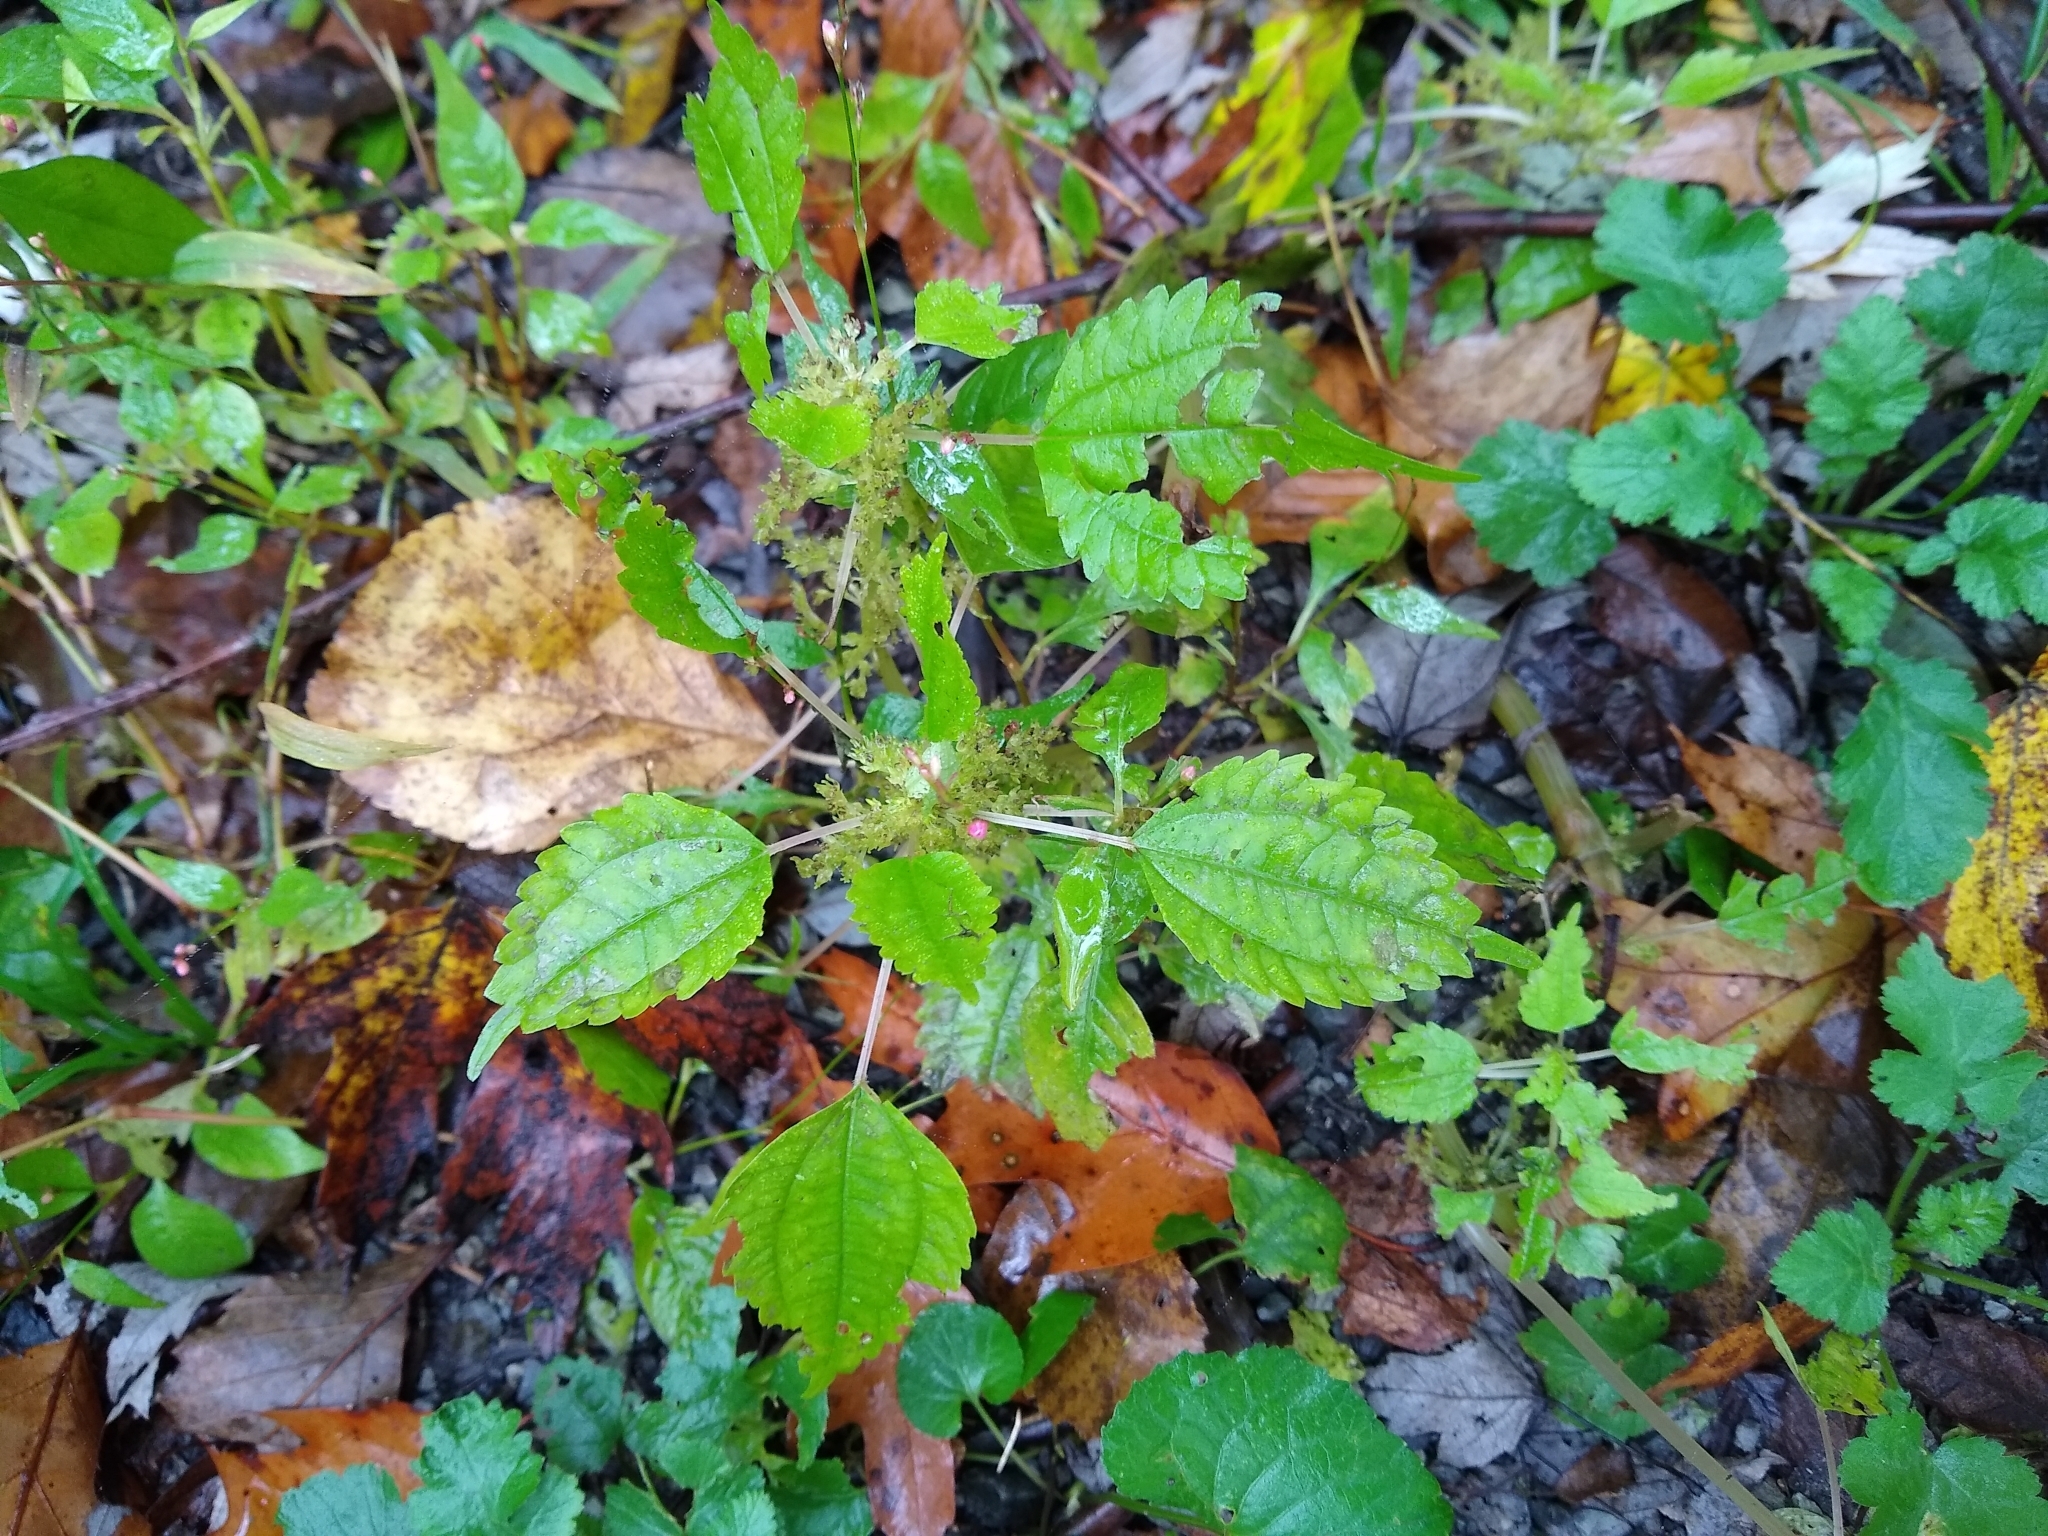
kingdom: Plantae
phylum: Tracheophyta
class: Magnoliopsida
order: Rosales
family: Urticaceae
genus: Pilea
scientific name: Pilea pumila
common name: Clearweed
